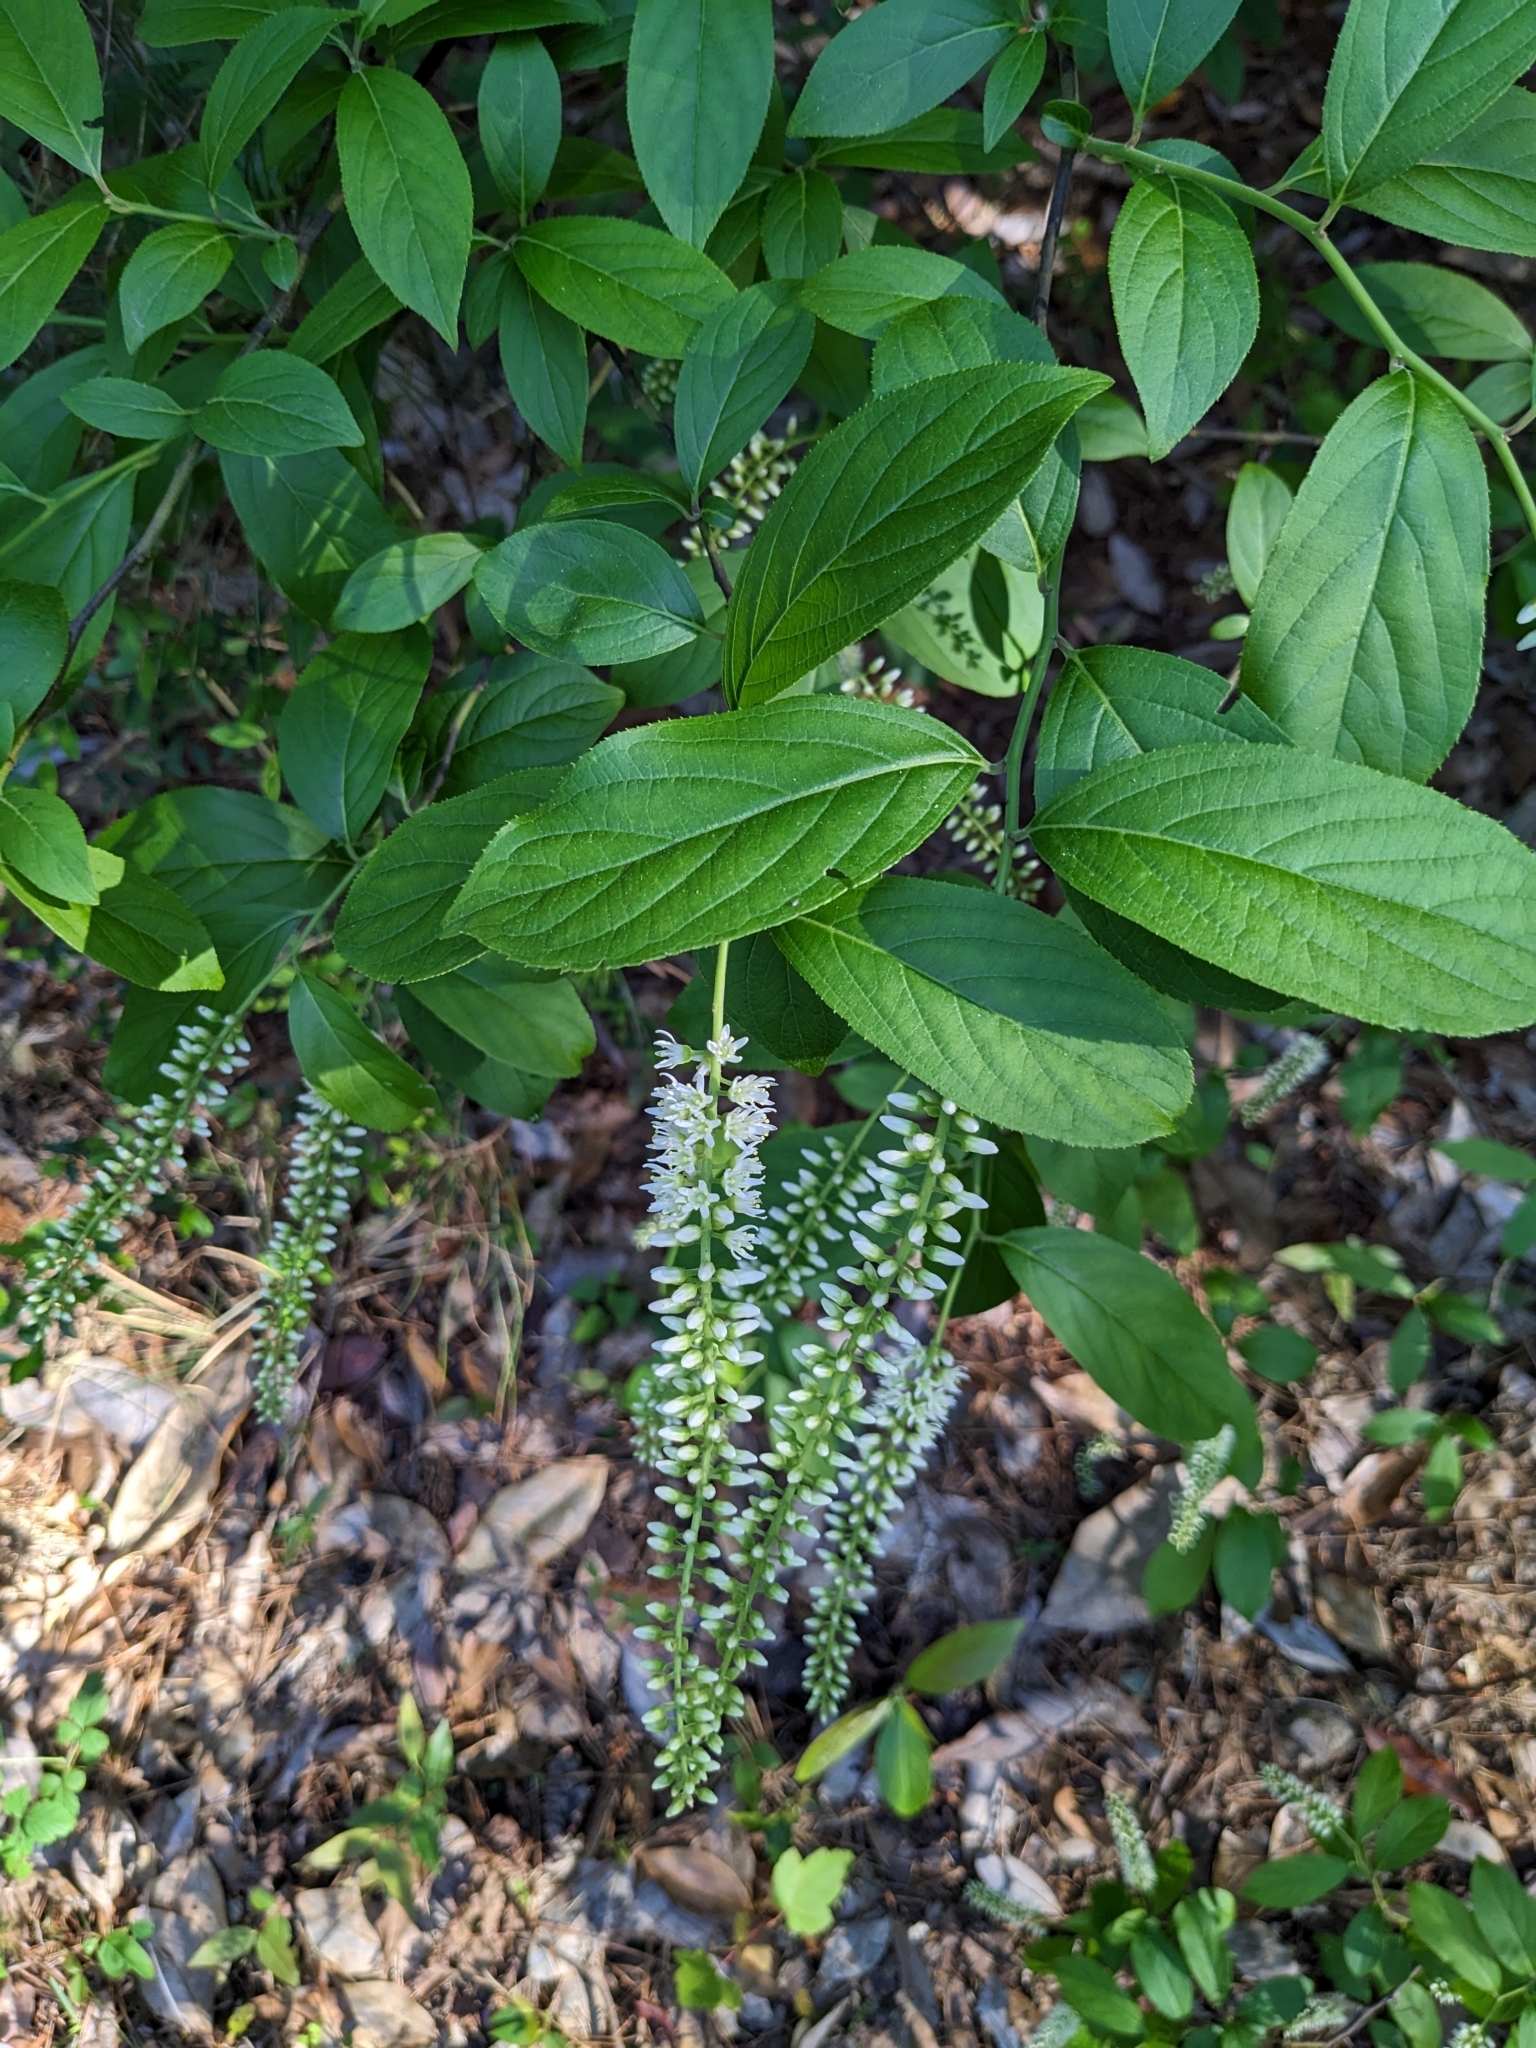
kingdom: Plantae
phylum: Tracheophyta
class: Magnoliopsida
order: Saxifragales
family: Iteaceae
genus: Itea
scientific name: Itea virginica
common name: Sweetspire
